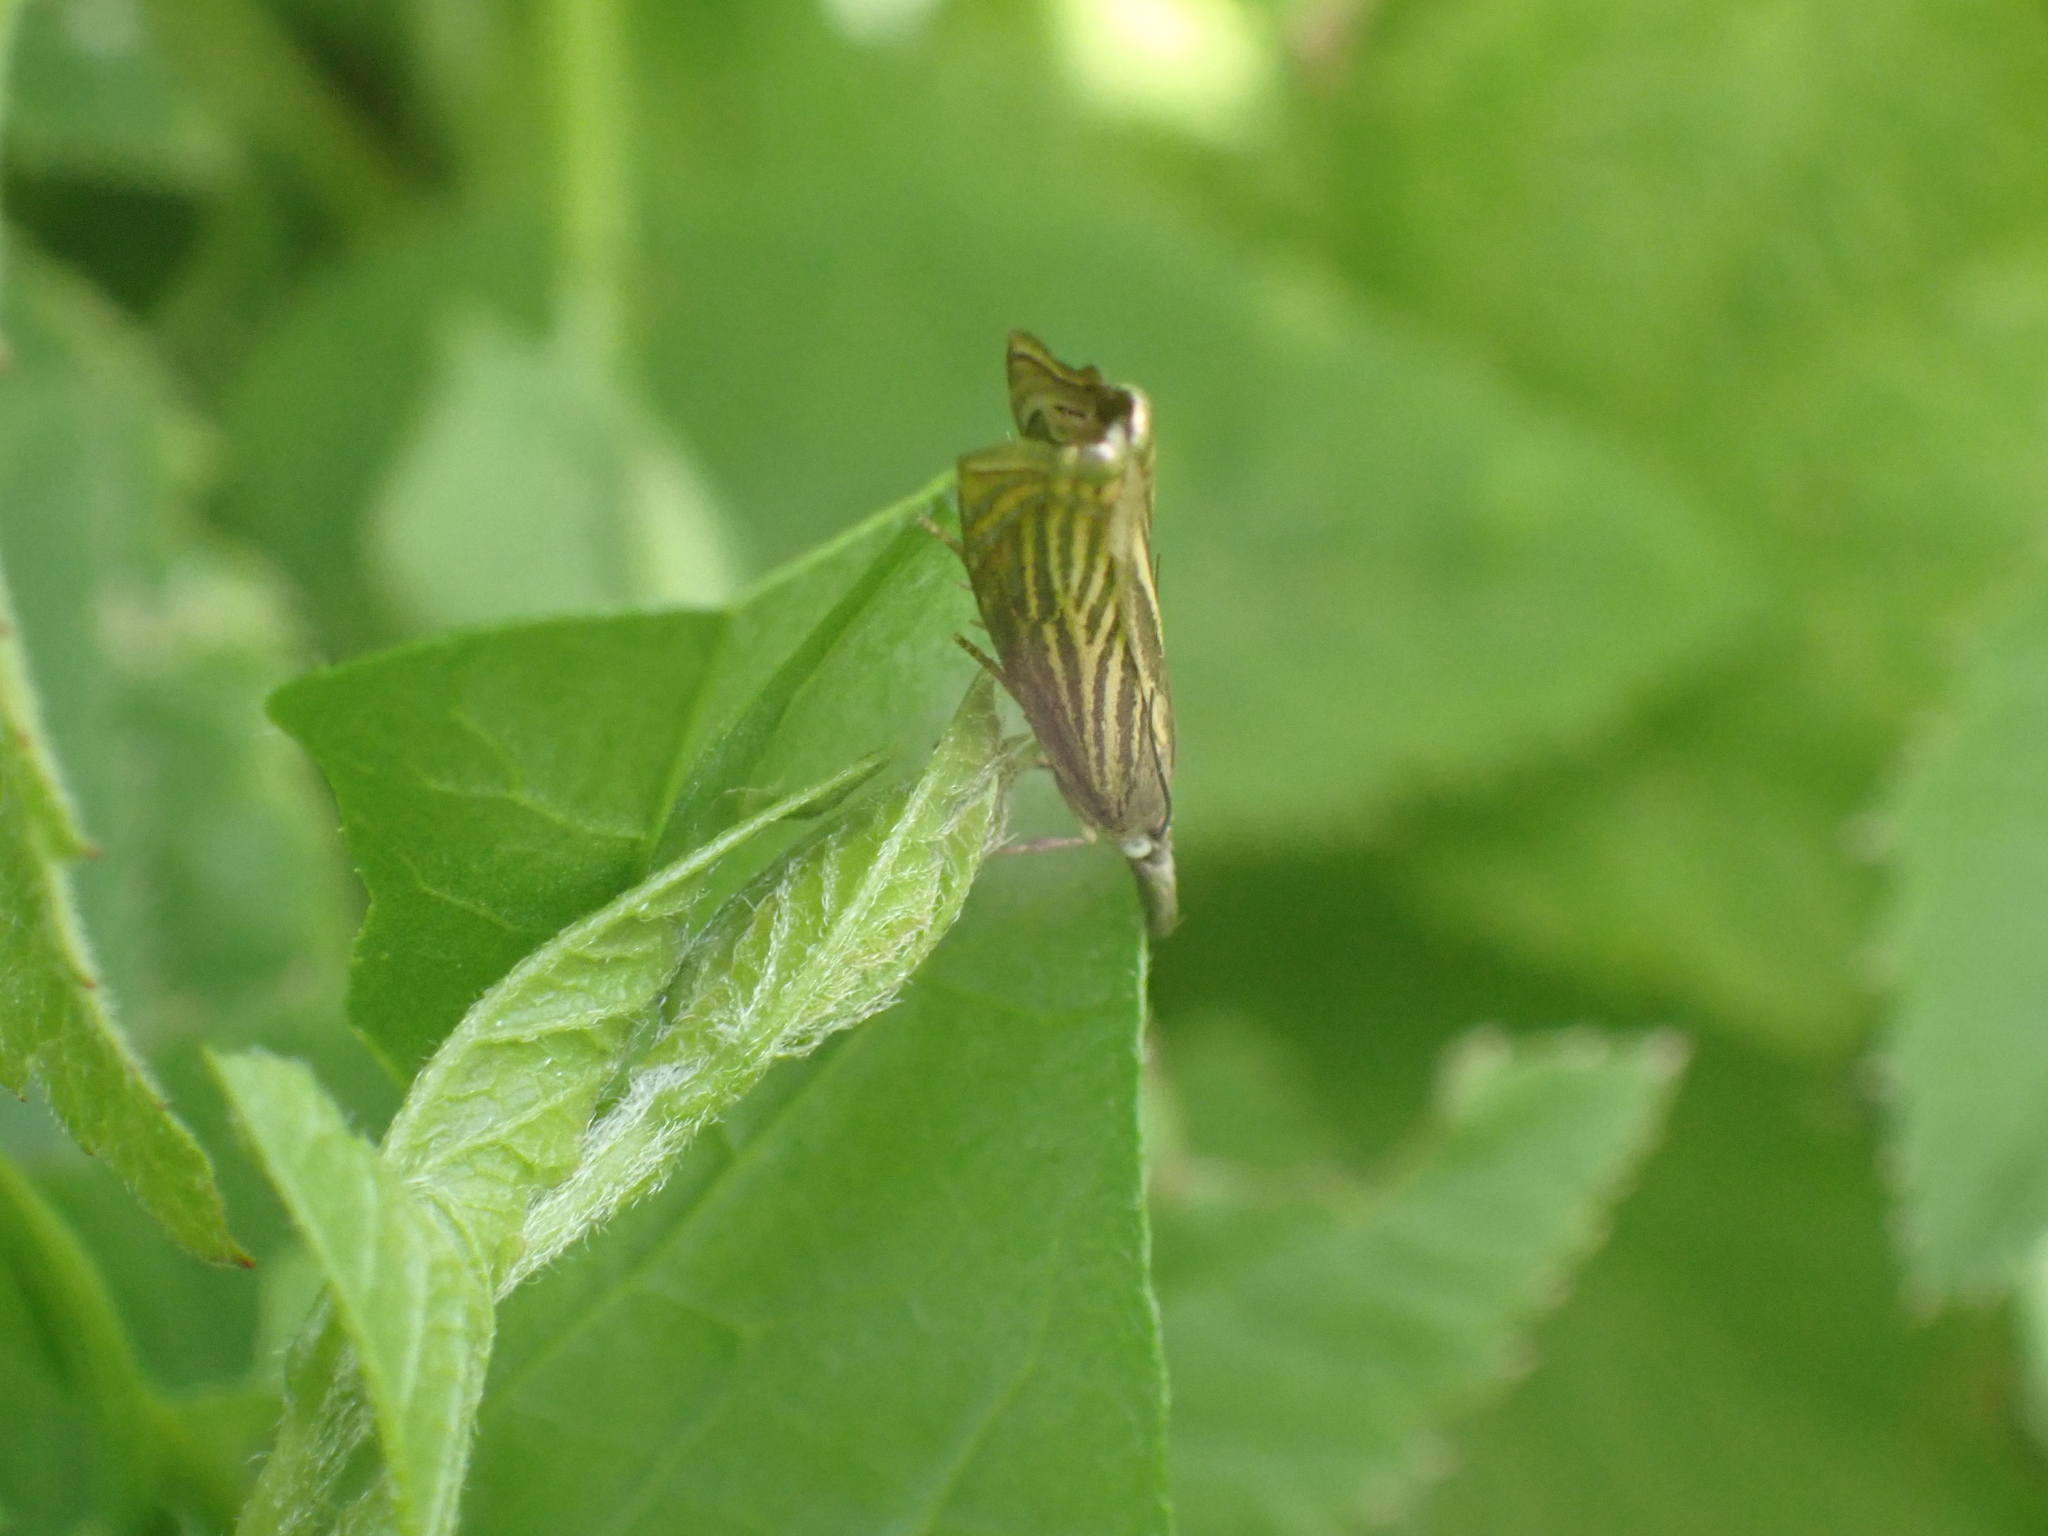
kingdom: Animalia
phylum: Arthropoda
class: Insecta
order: Lepidoptera
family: Crambidae
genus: Chrysoteuchia
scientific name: Chrysoteuchia culmella
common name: Garden grass-veneer
